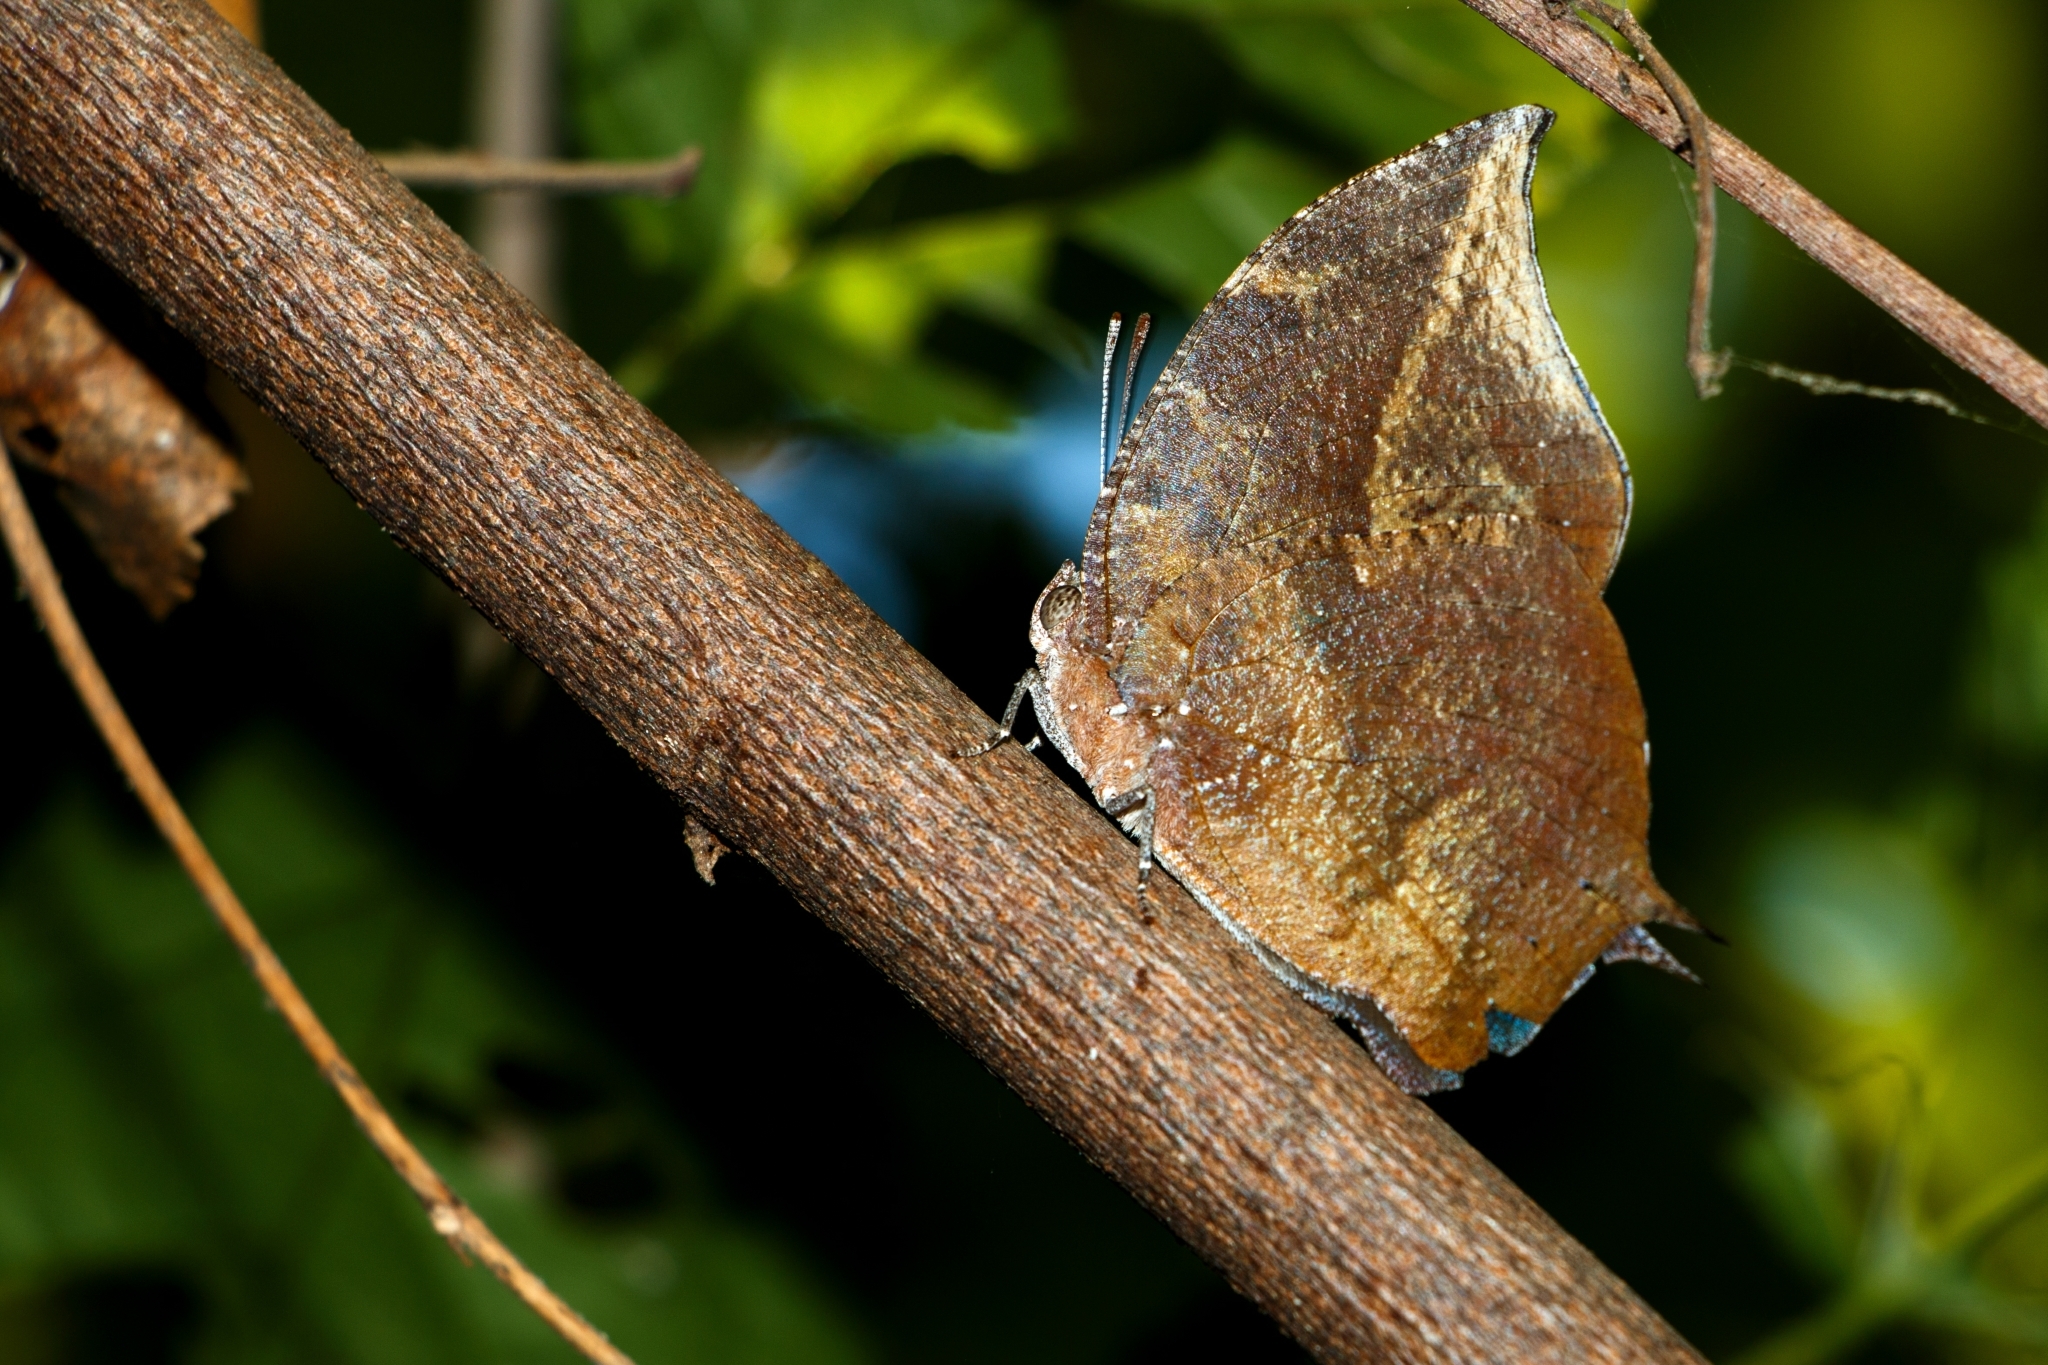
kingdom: Animalia
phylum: Arthropoda
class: Insecta
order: Lepidoptera
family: Nymphalidae
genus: Memphis
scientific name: Memphis forreri
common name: Forrer's leafwing
